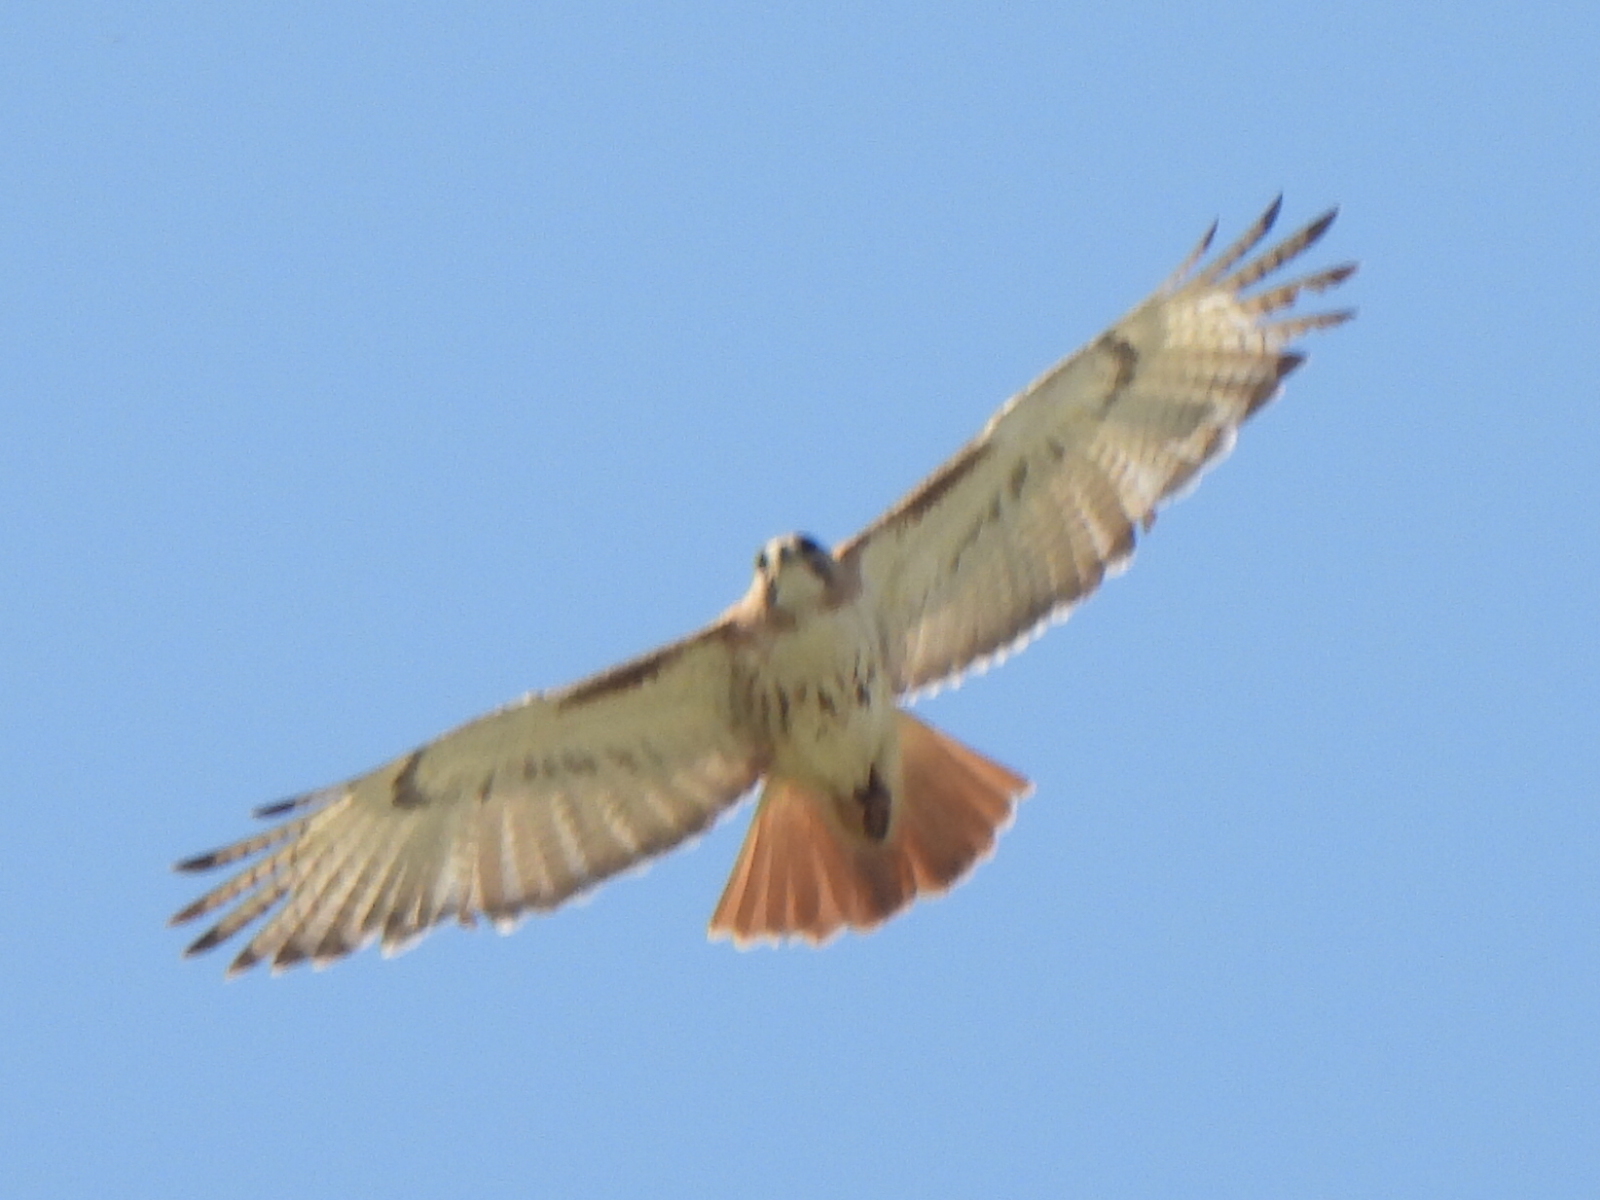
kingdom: Animalia
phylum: Chordata
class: Aves
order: Accipitriformes
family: Accipitridae
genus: Buteo
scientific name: Buteo jamaicensis
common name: Red-tailed hawk
